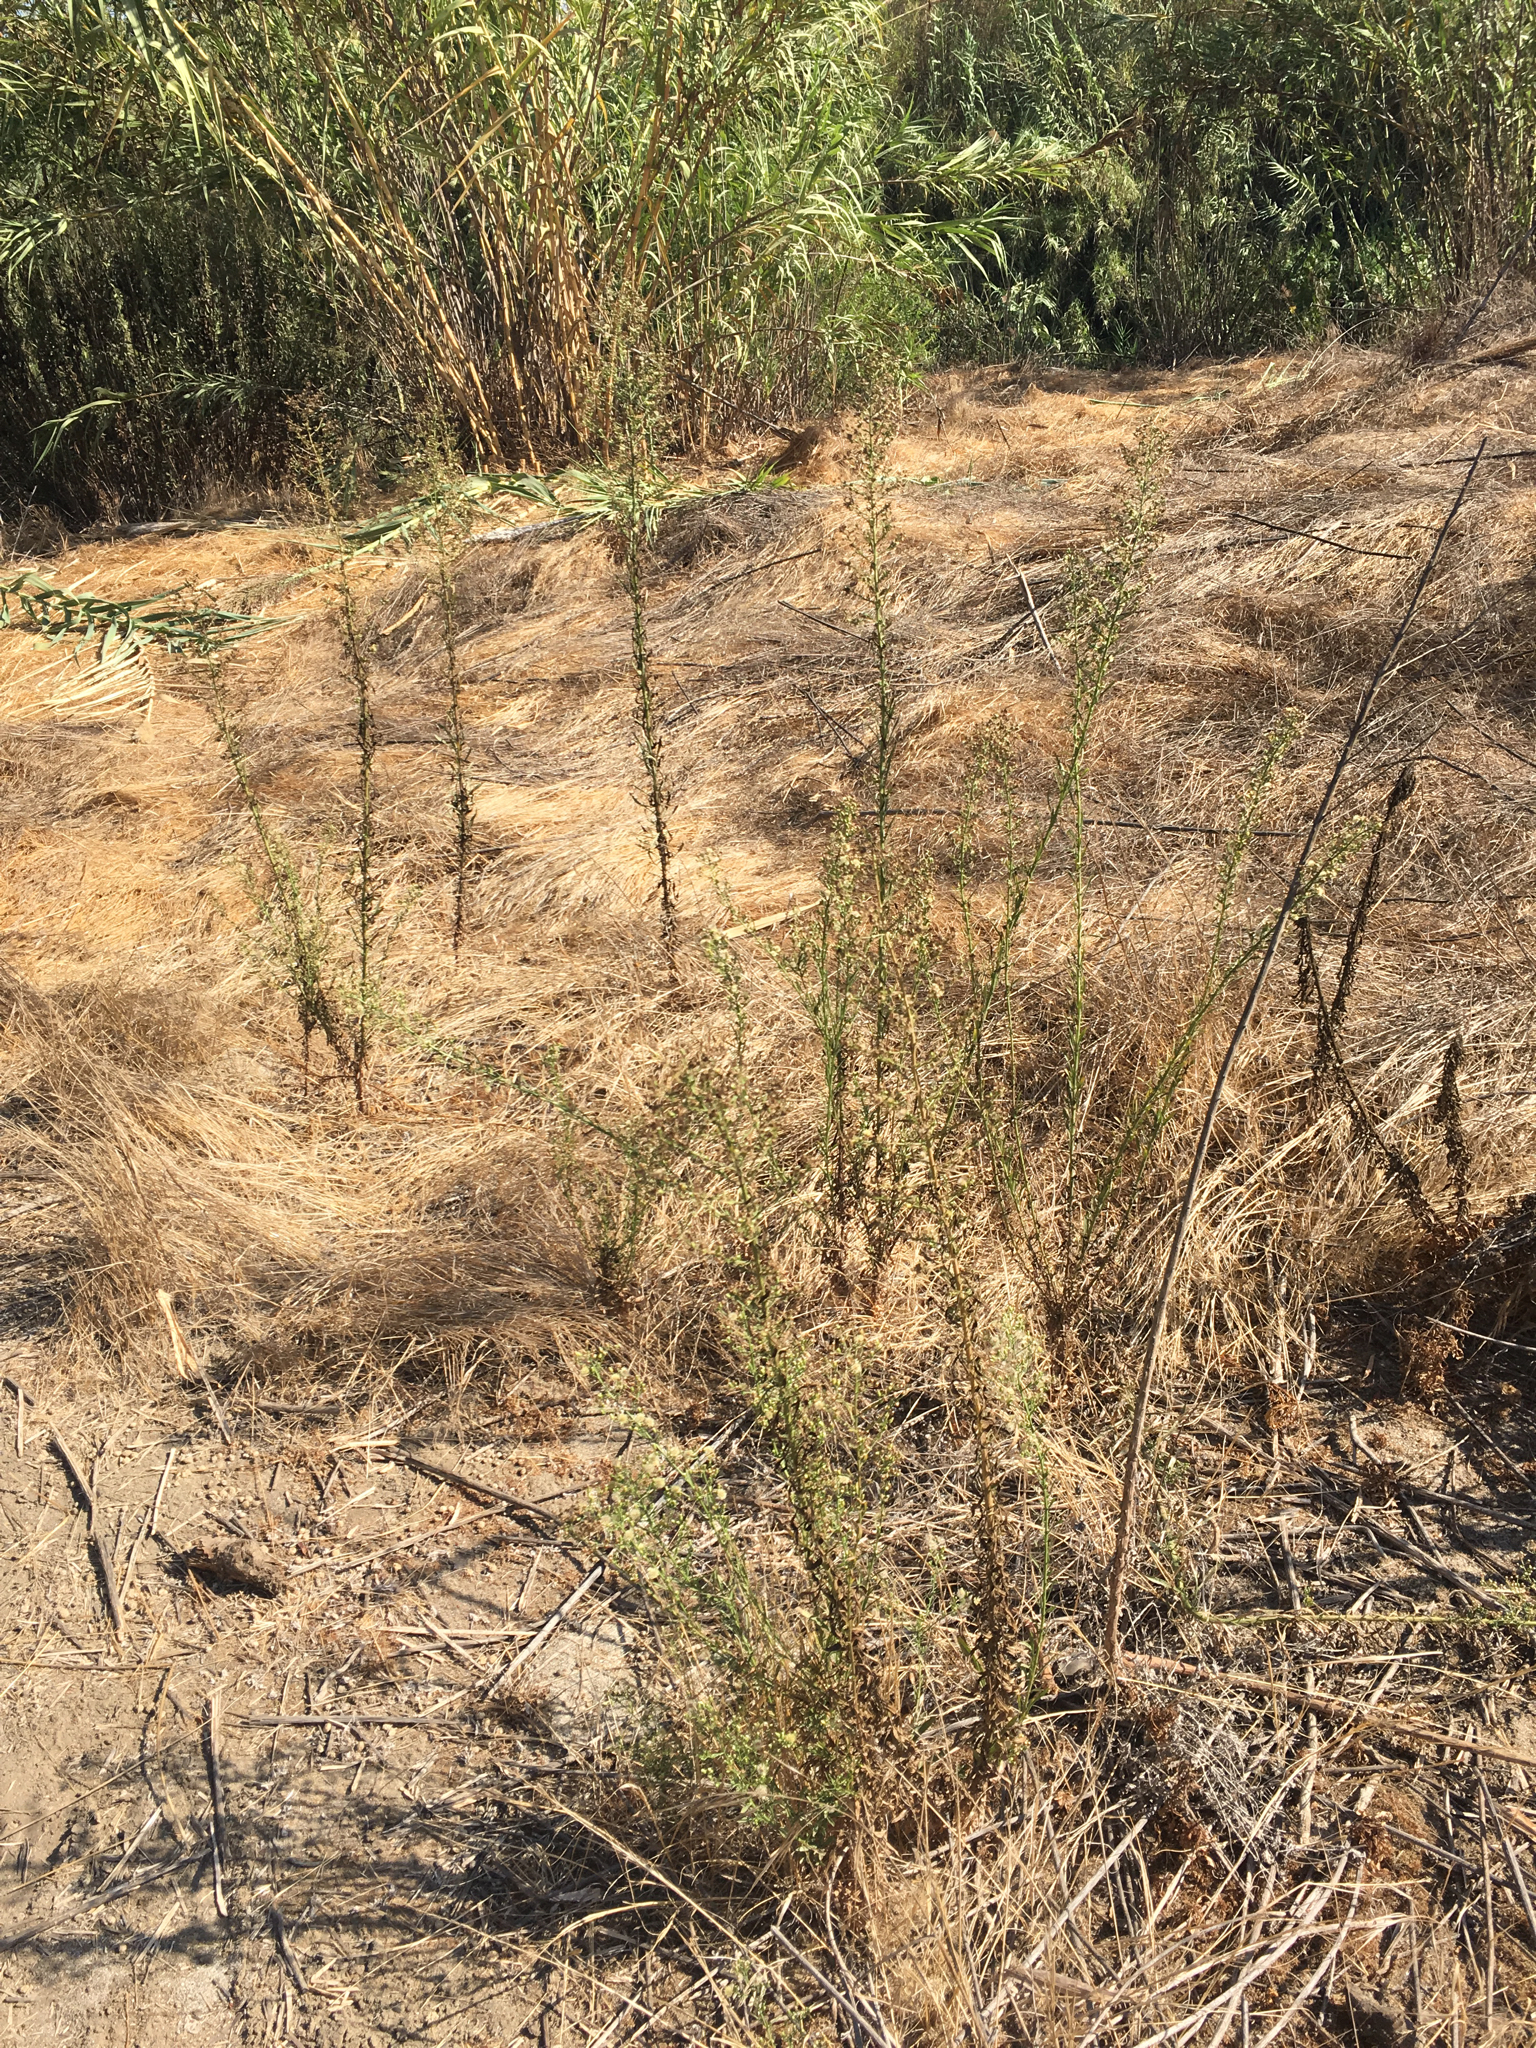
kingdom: Plantae
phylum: Tracheophyta
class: Magnoliopsida
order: Asterales
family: Asteraceae
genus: Erigeron
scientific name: Erigeron canadensis
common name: Canadian fleabane
